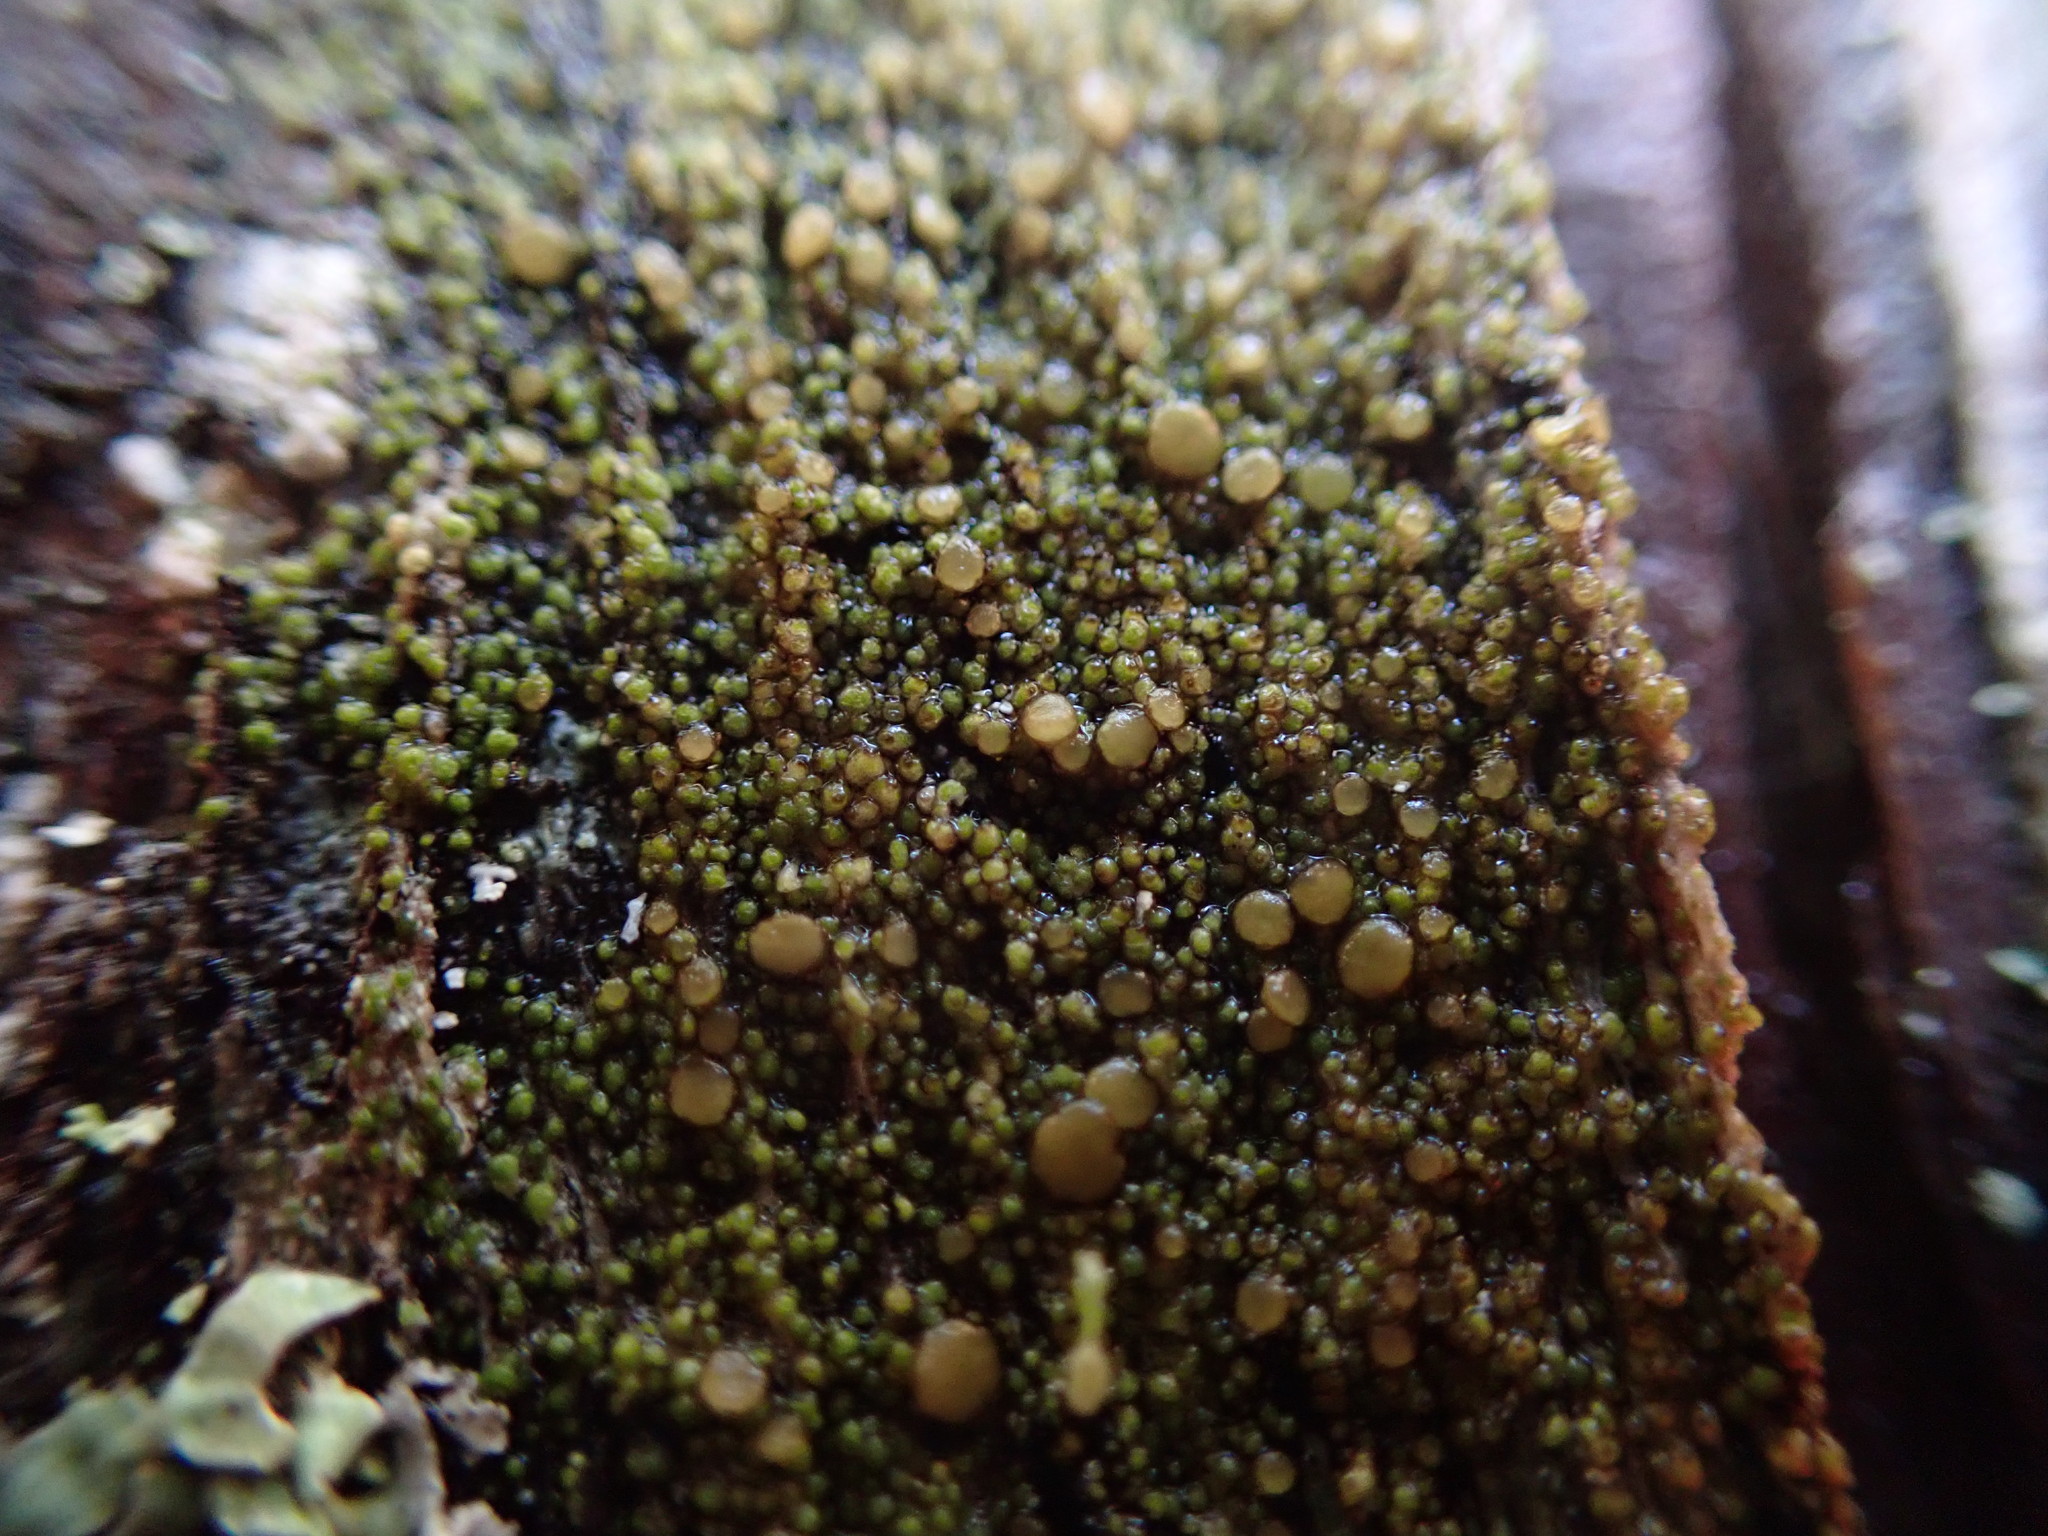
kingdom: Fungi
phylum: Ascomycota
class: Lecanoromycetes
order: Lecanorales
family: Parmeliaceae
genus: Protoparmelia
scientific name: Protoparmelia ochrococca
